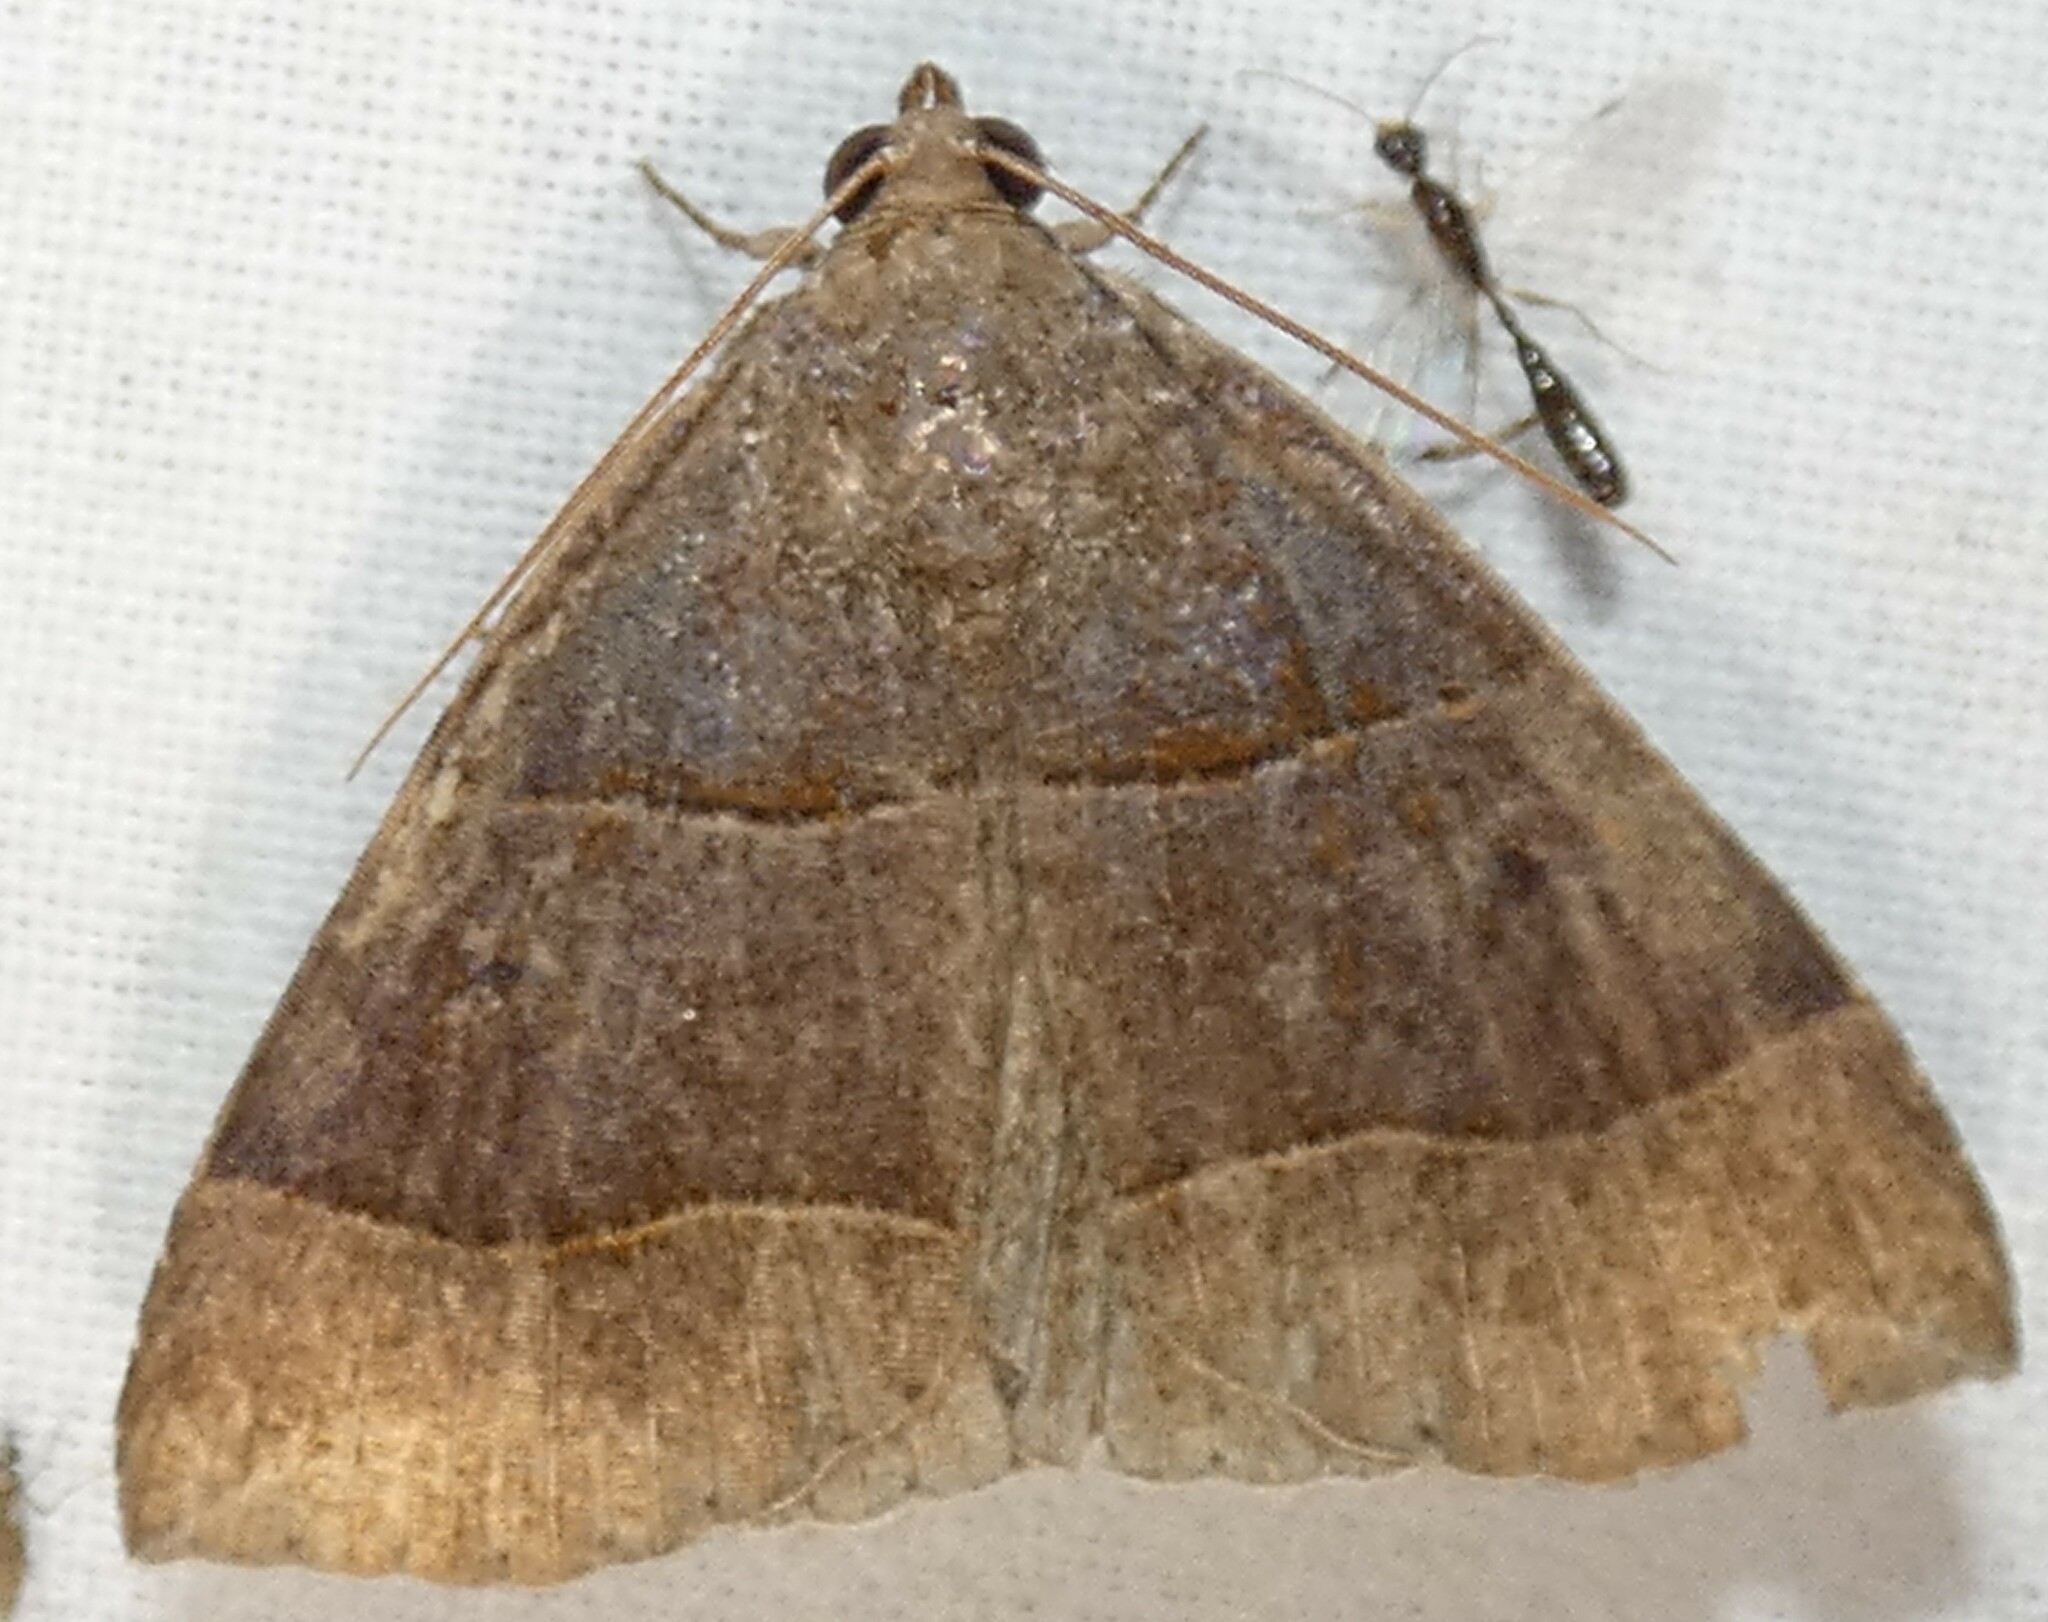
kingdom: Animalia
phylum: Arthropoda
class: Insecta
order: Lepidoptera
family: Erebidae
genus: Parallelia
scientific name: Parallelia bistriaris
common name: Maple looper moth
